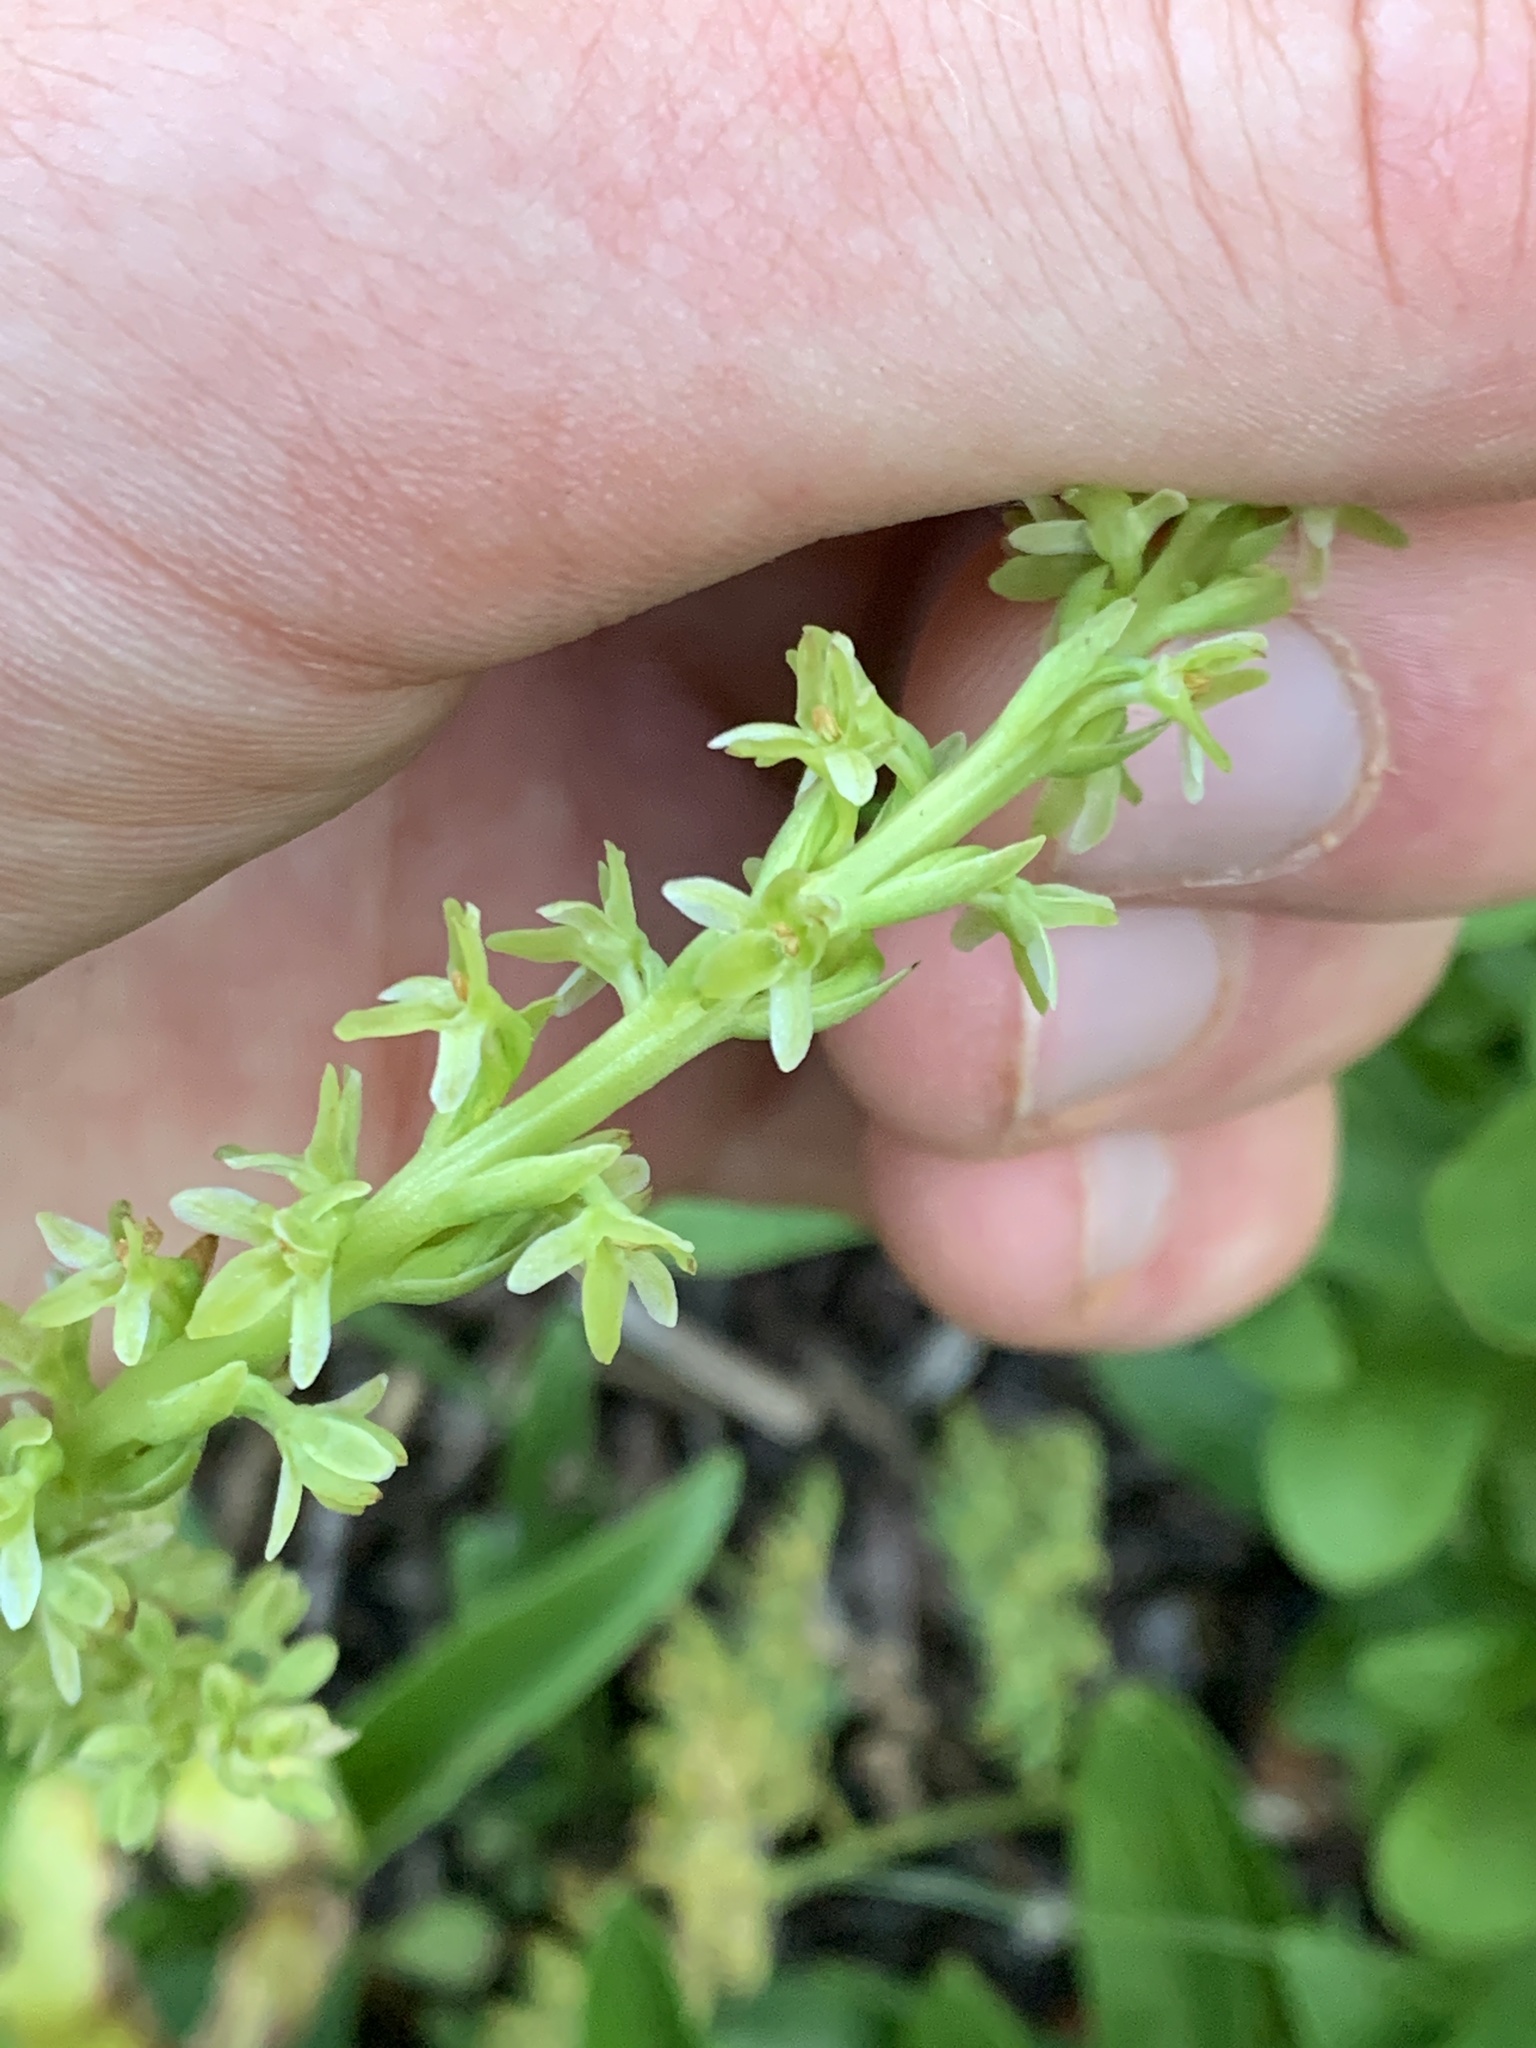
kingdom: Plantae
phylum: Tracheophyta
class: Liliopsida
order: Asparagales
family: Orchidaceae
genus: Platanthera
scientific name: Platanthera unalascensis
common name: Alaska bog orchid
